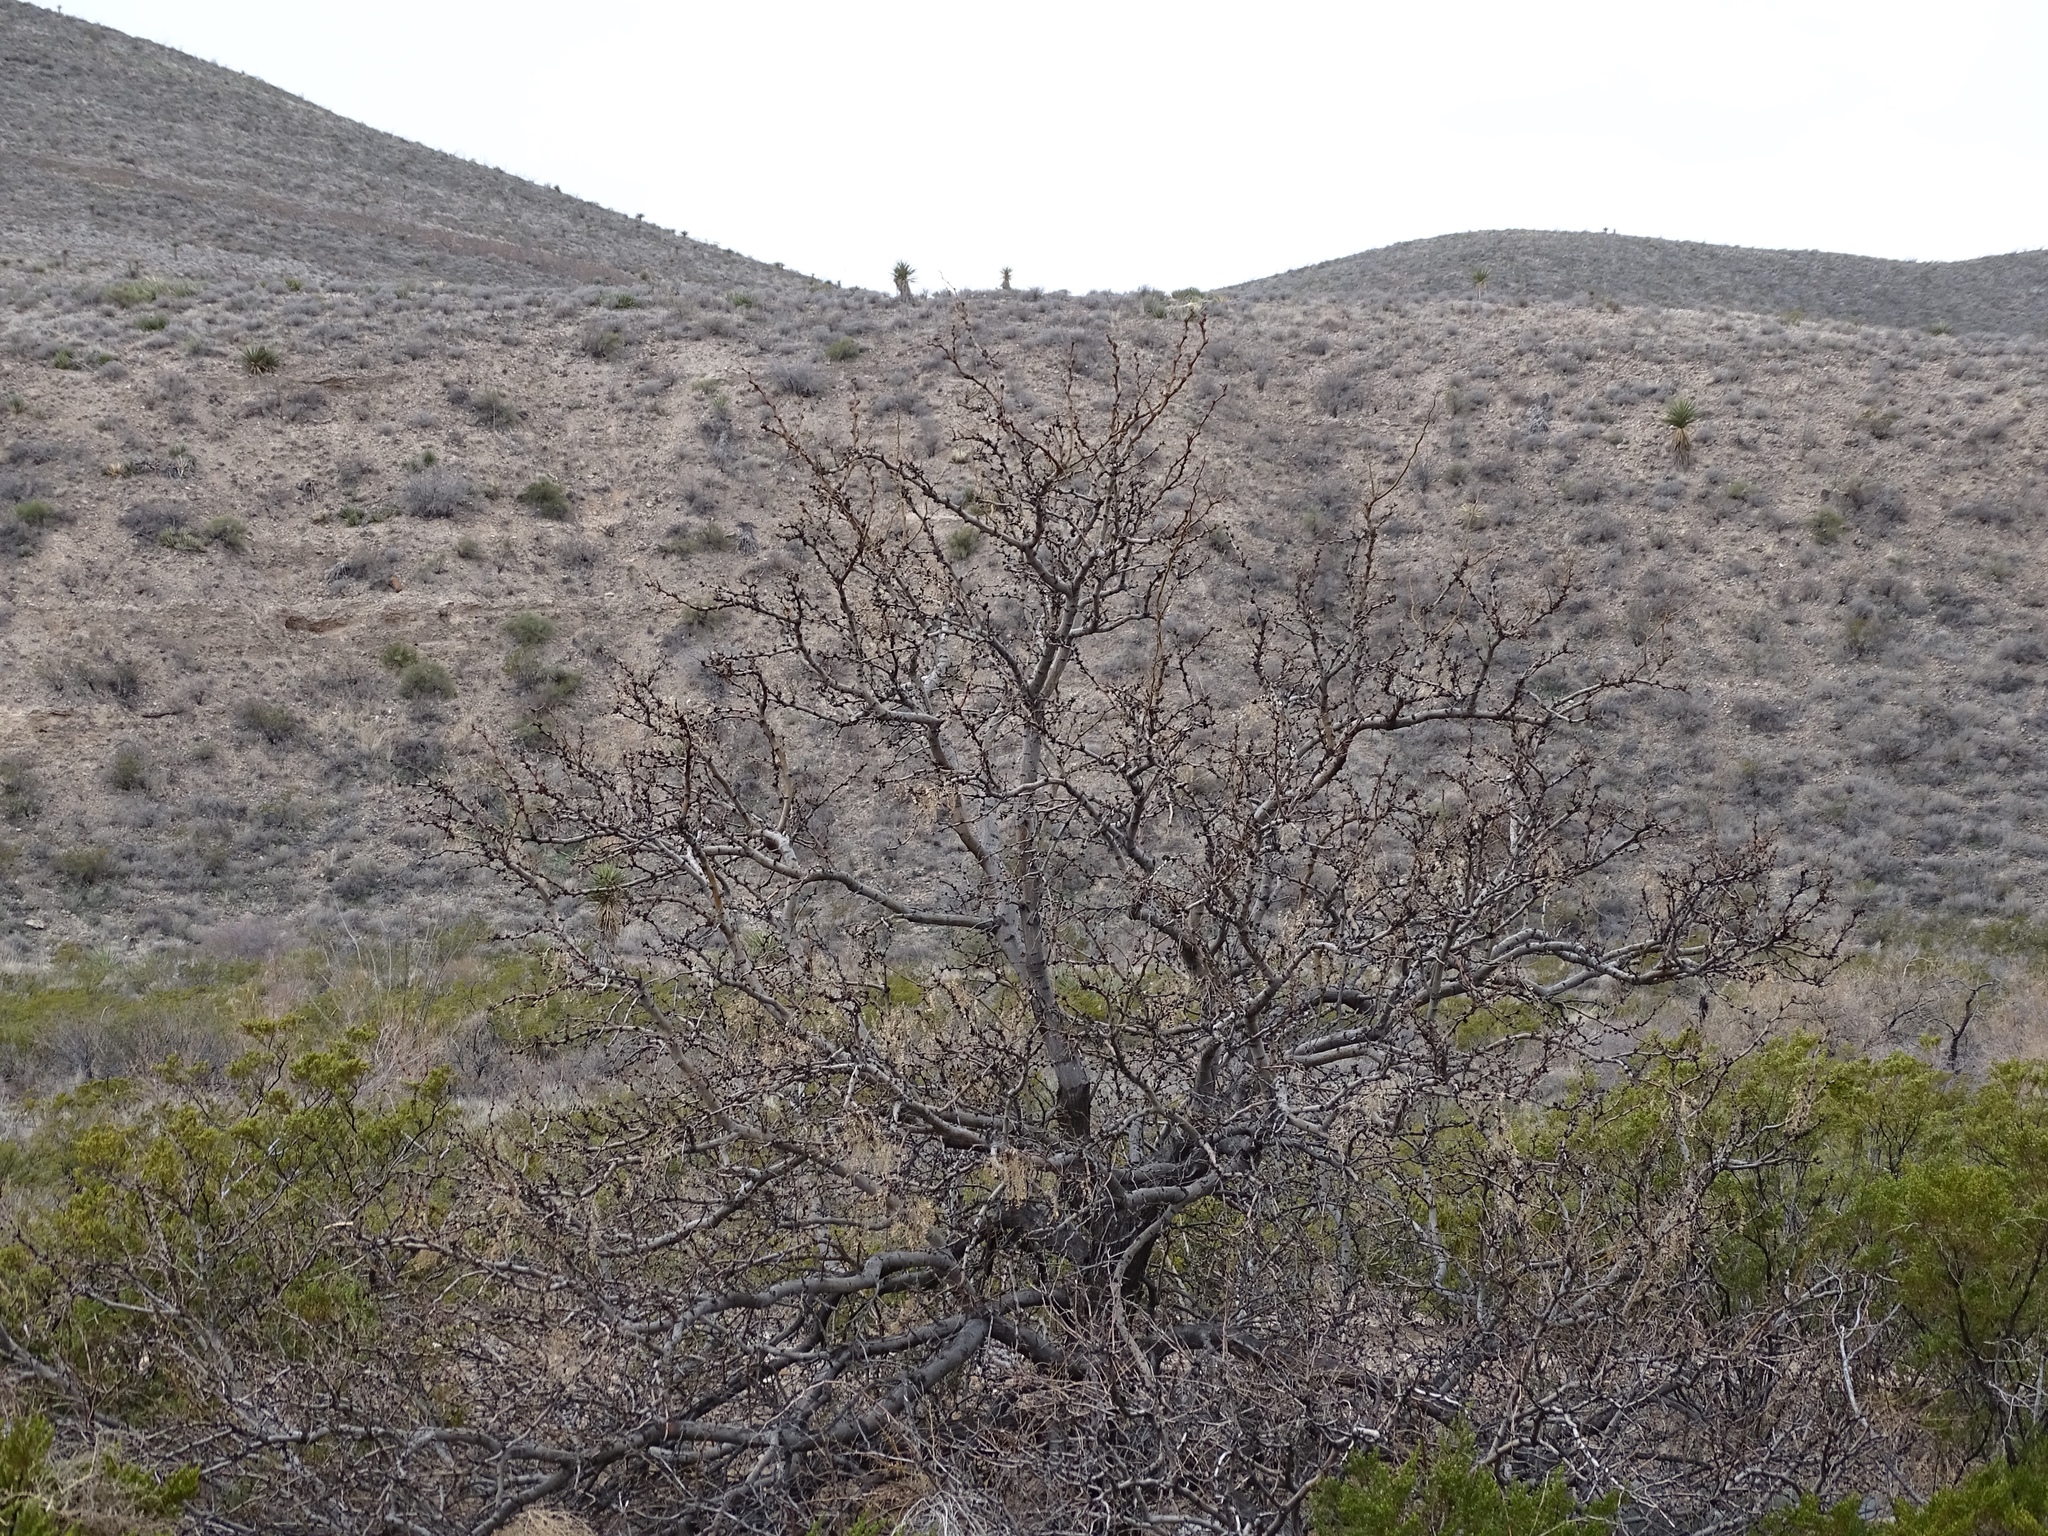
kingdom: Plantae
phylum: Tracheophyta
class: Magnoliopsida
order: Fabales
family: Fabaceae
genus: Prosopis
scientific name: Prosopis glandulosa
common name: Honey mesquite
